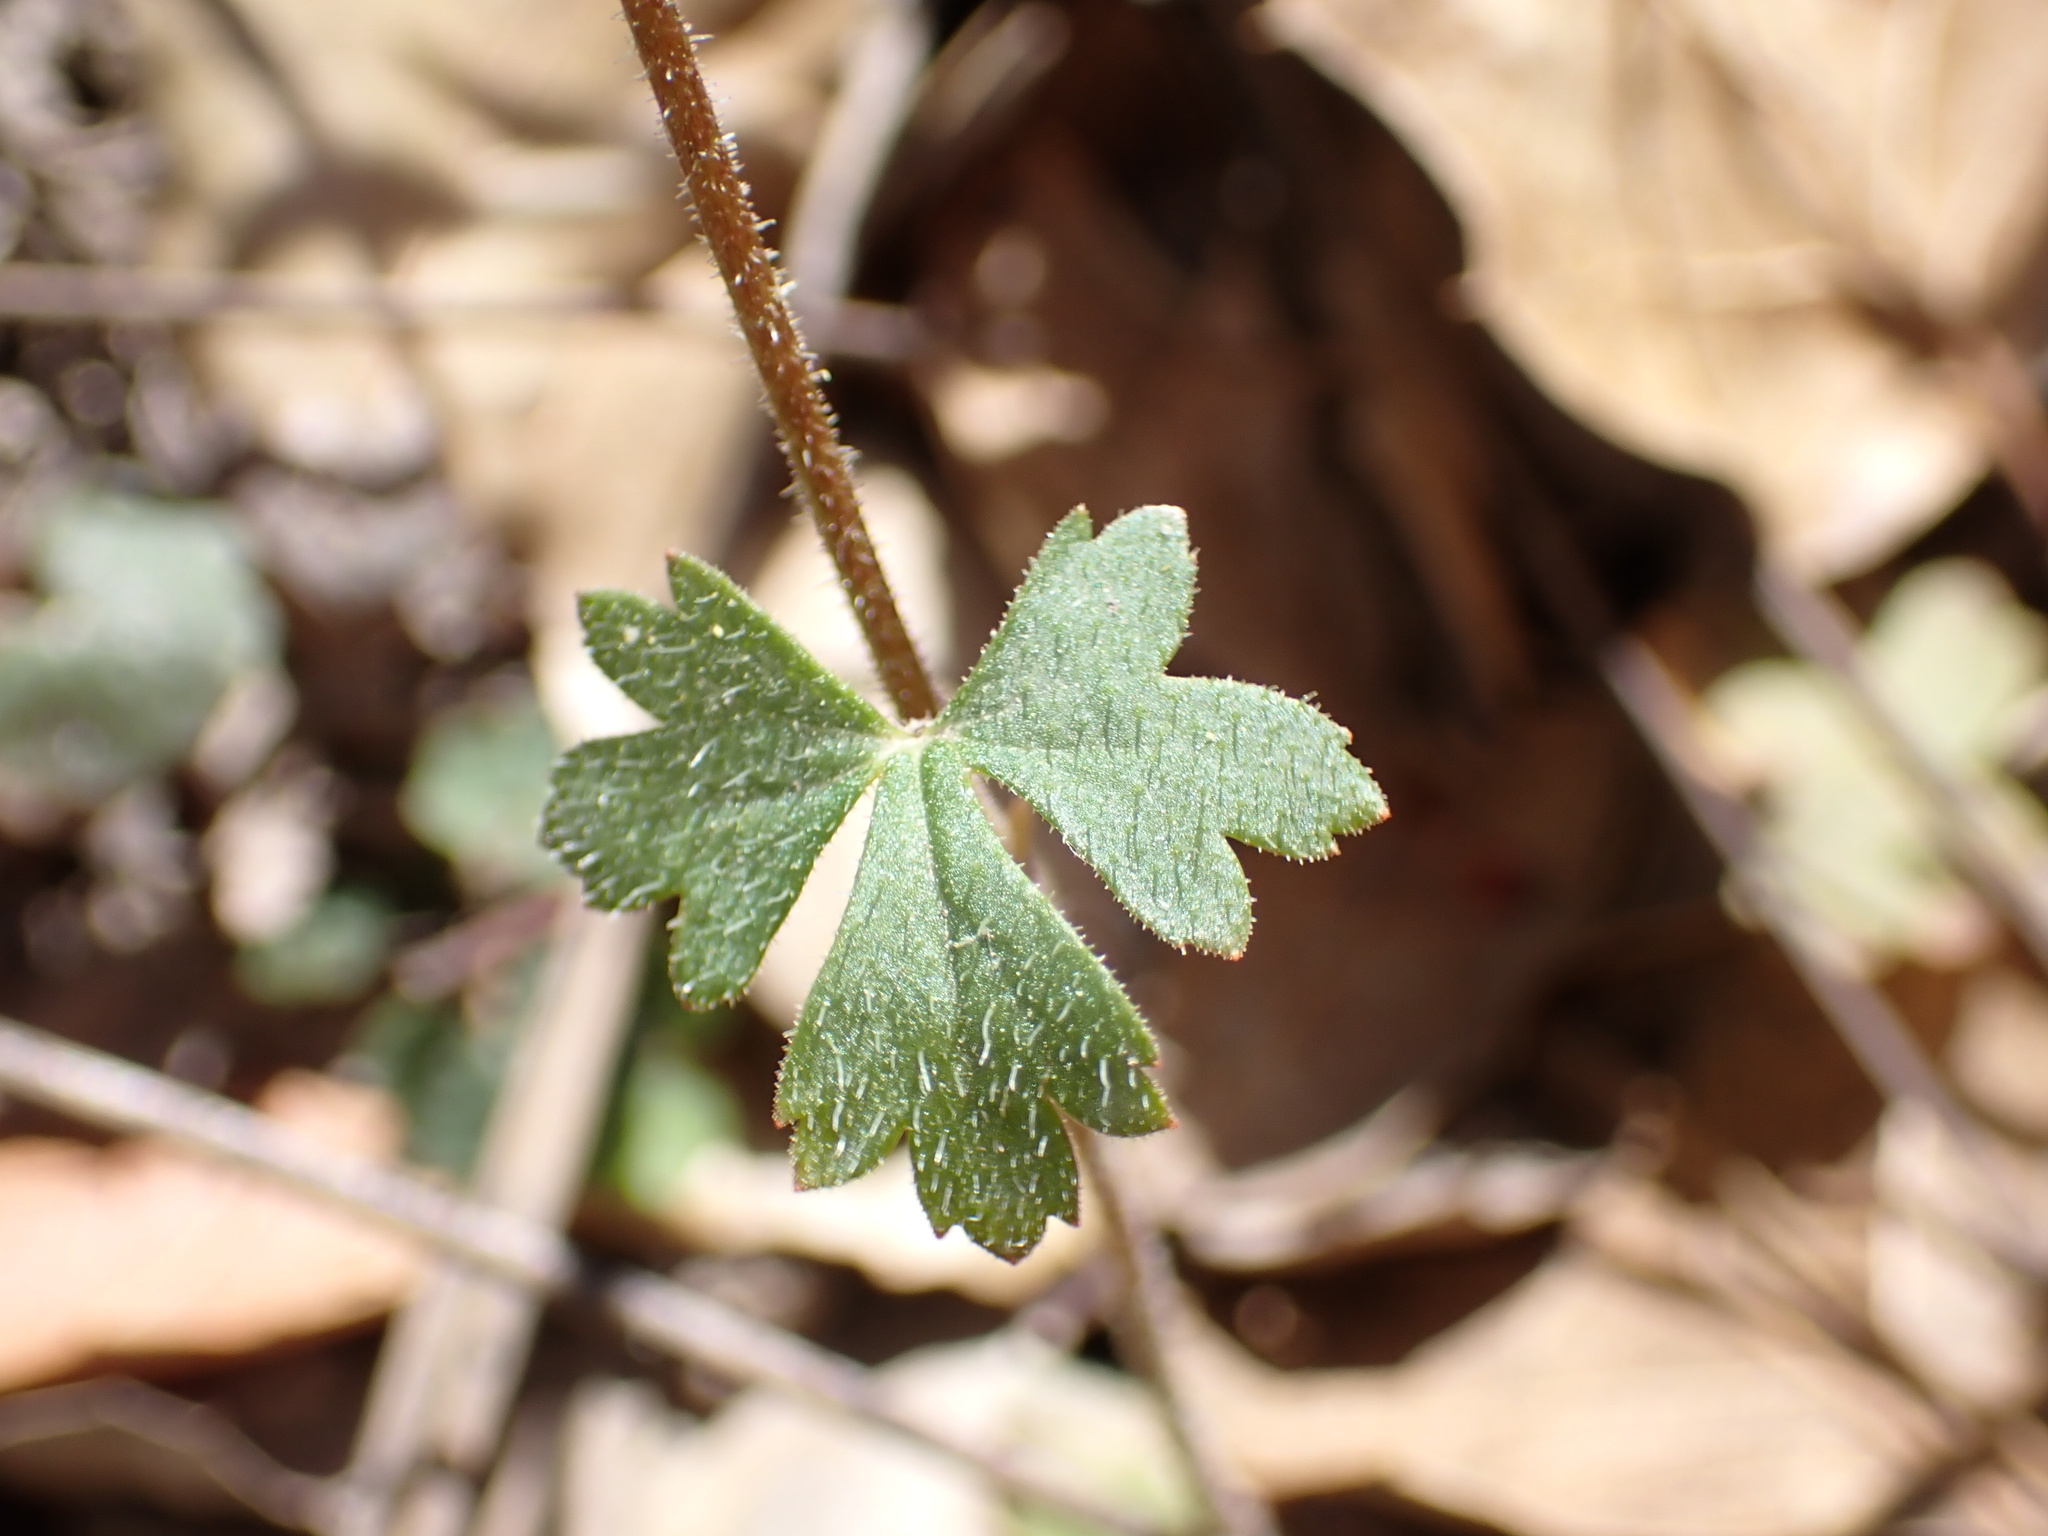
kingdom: Plantae
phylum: Tracheophyta
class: Magnoliopsida
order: Saxifragales
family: Saxifragaceae
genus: Lithophragma
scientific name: Lithophragma affine
